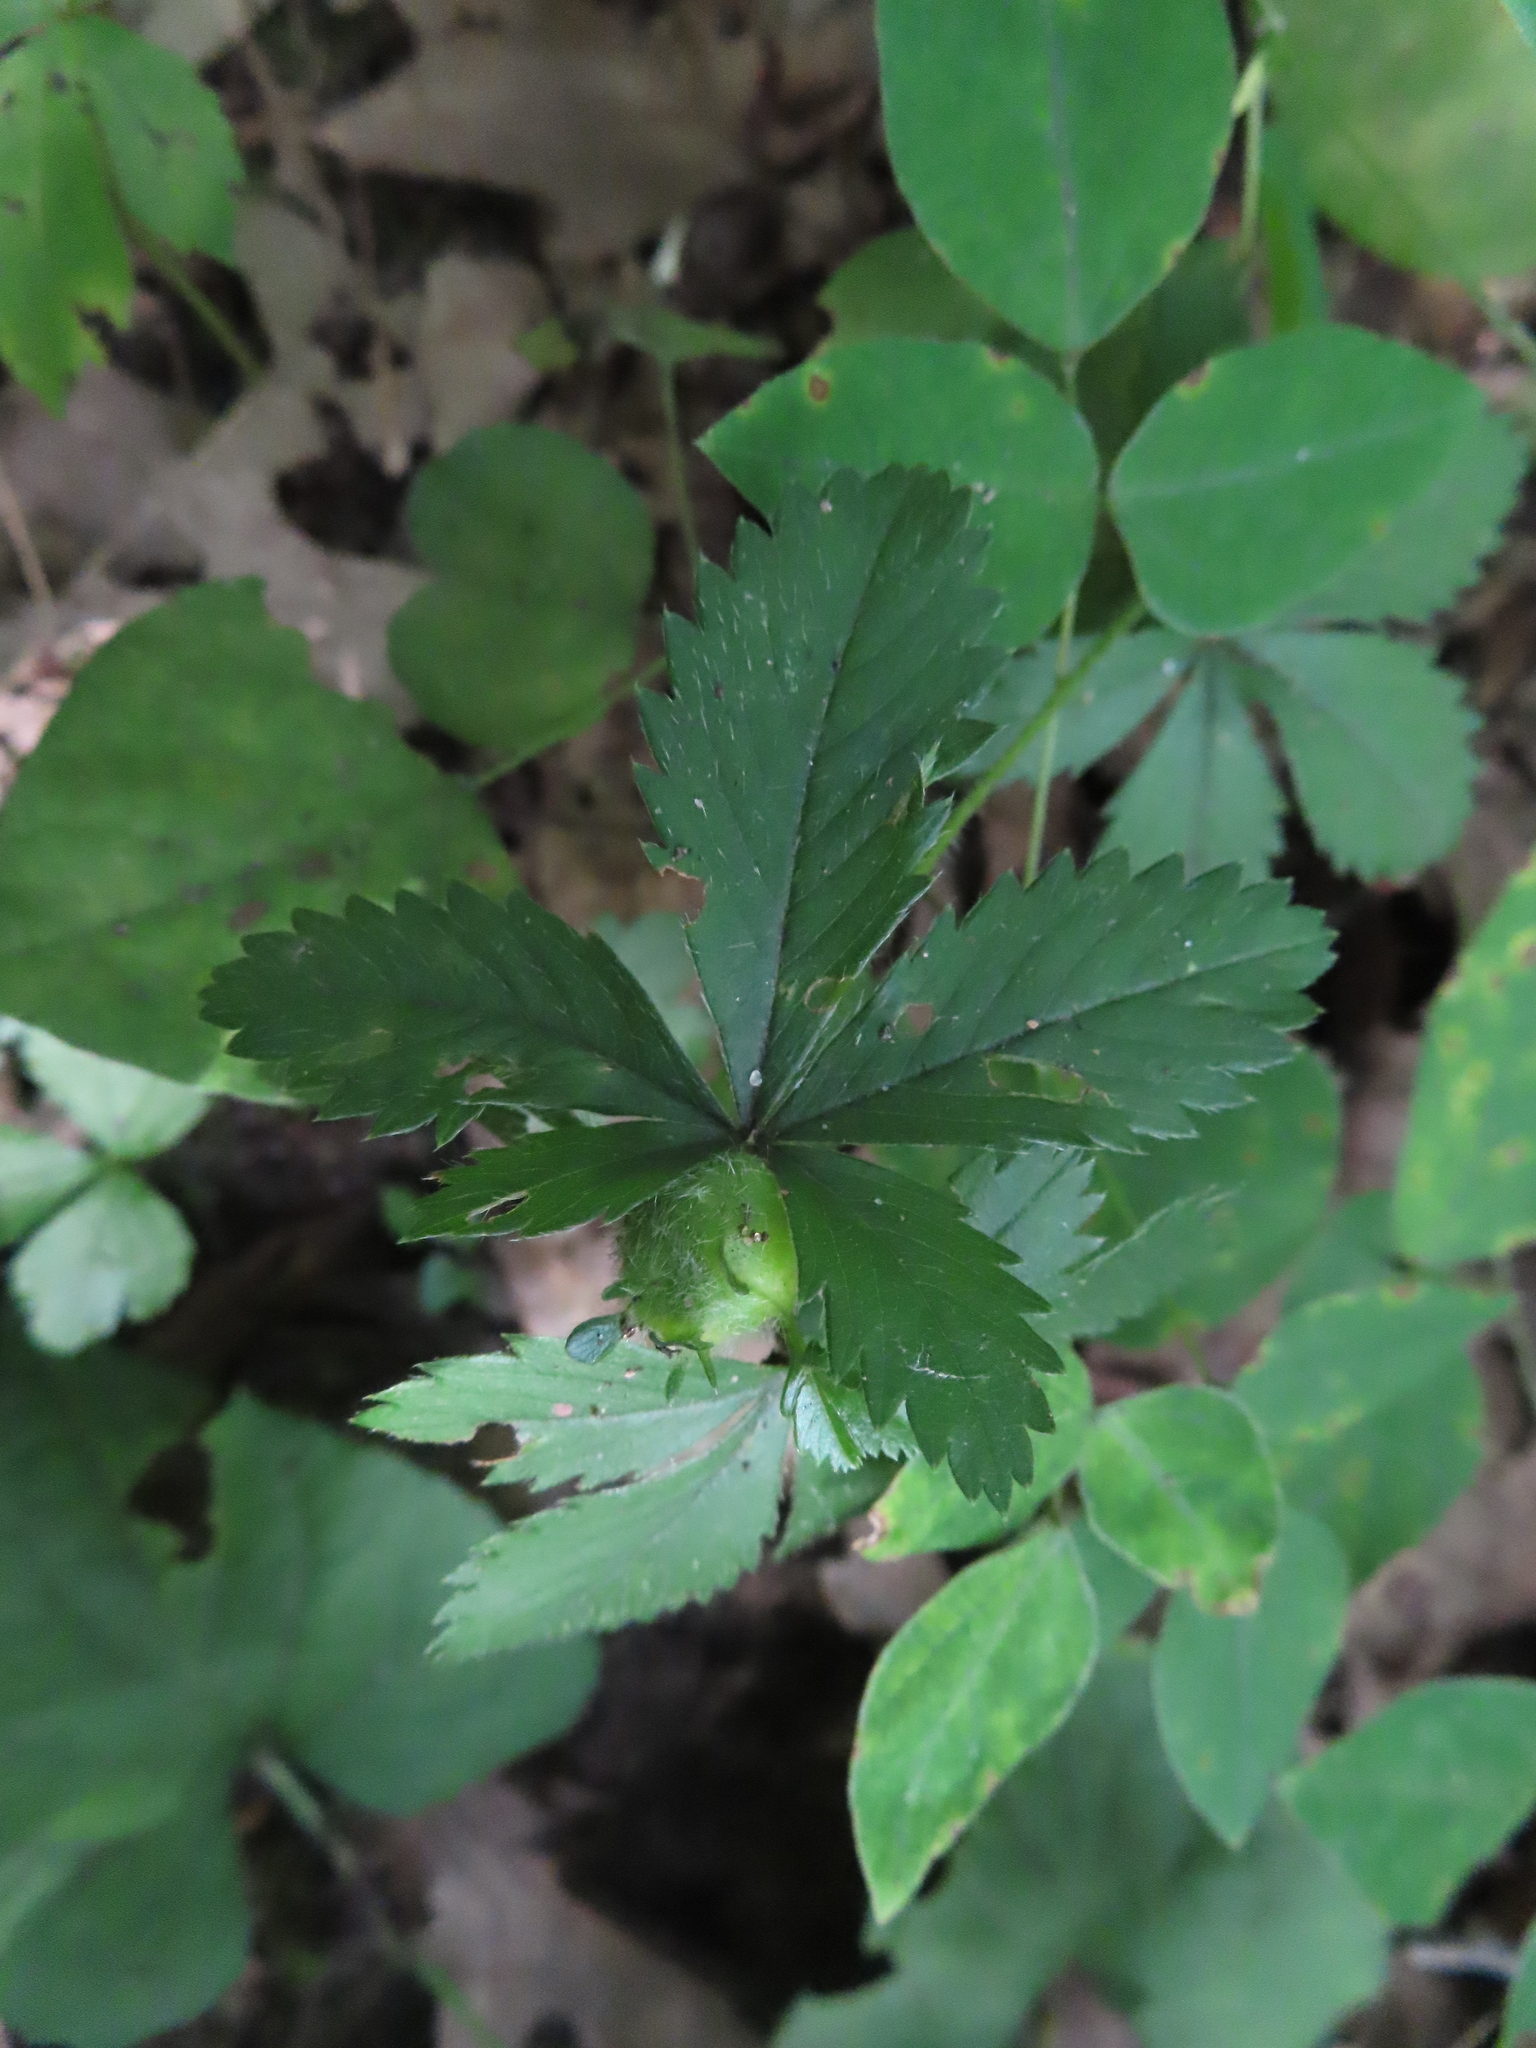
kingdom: Plantae
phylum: Tracheophyta
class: Magnoliopsida
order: Rosales
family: Rosaceae
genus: Potentilla
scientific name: Potentilla simplex
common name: Old field cinquefoil
